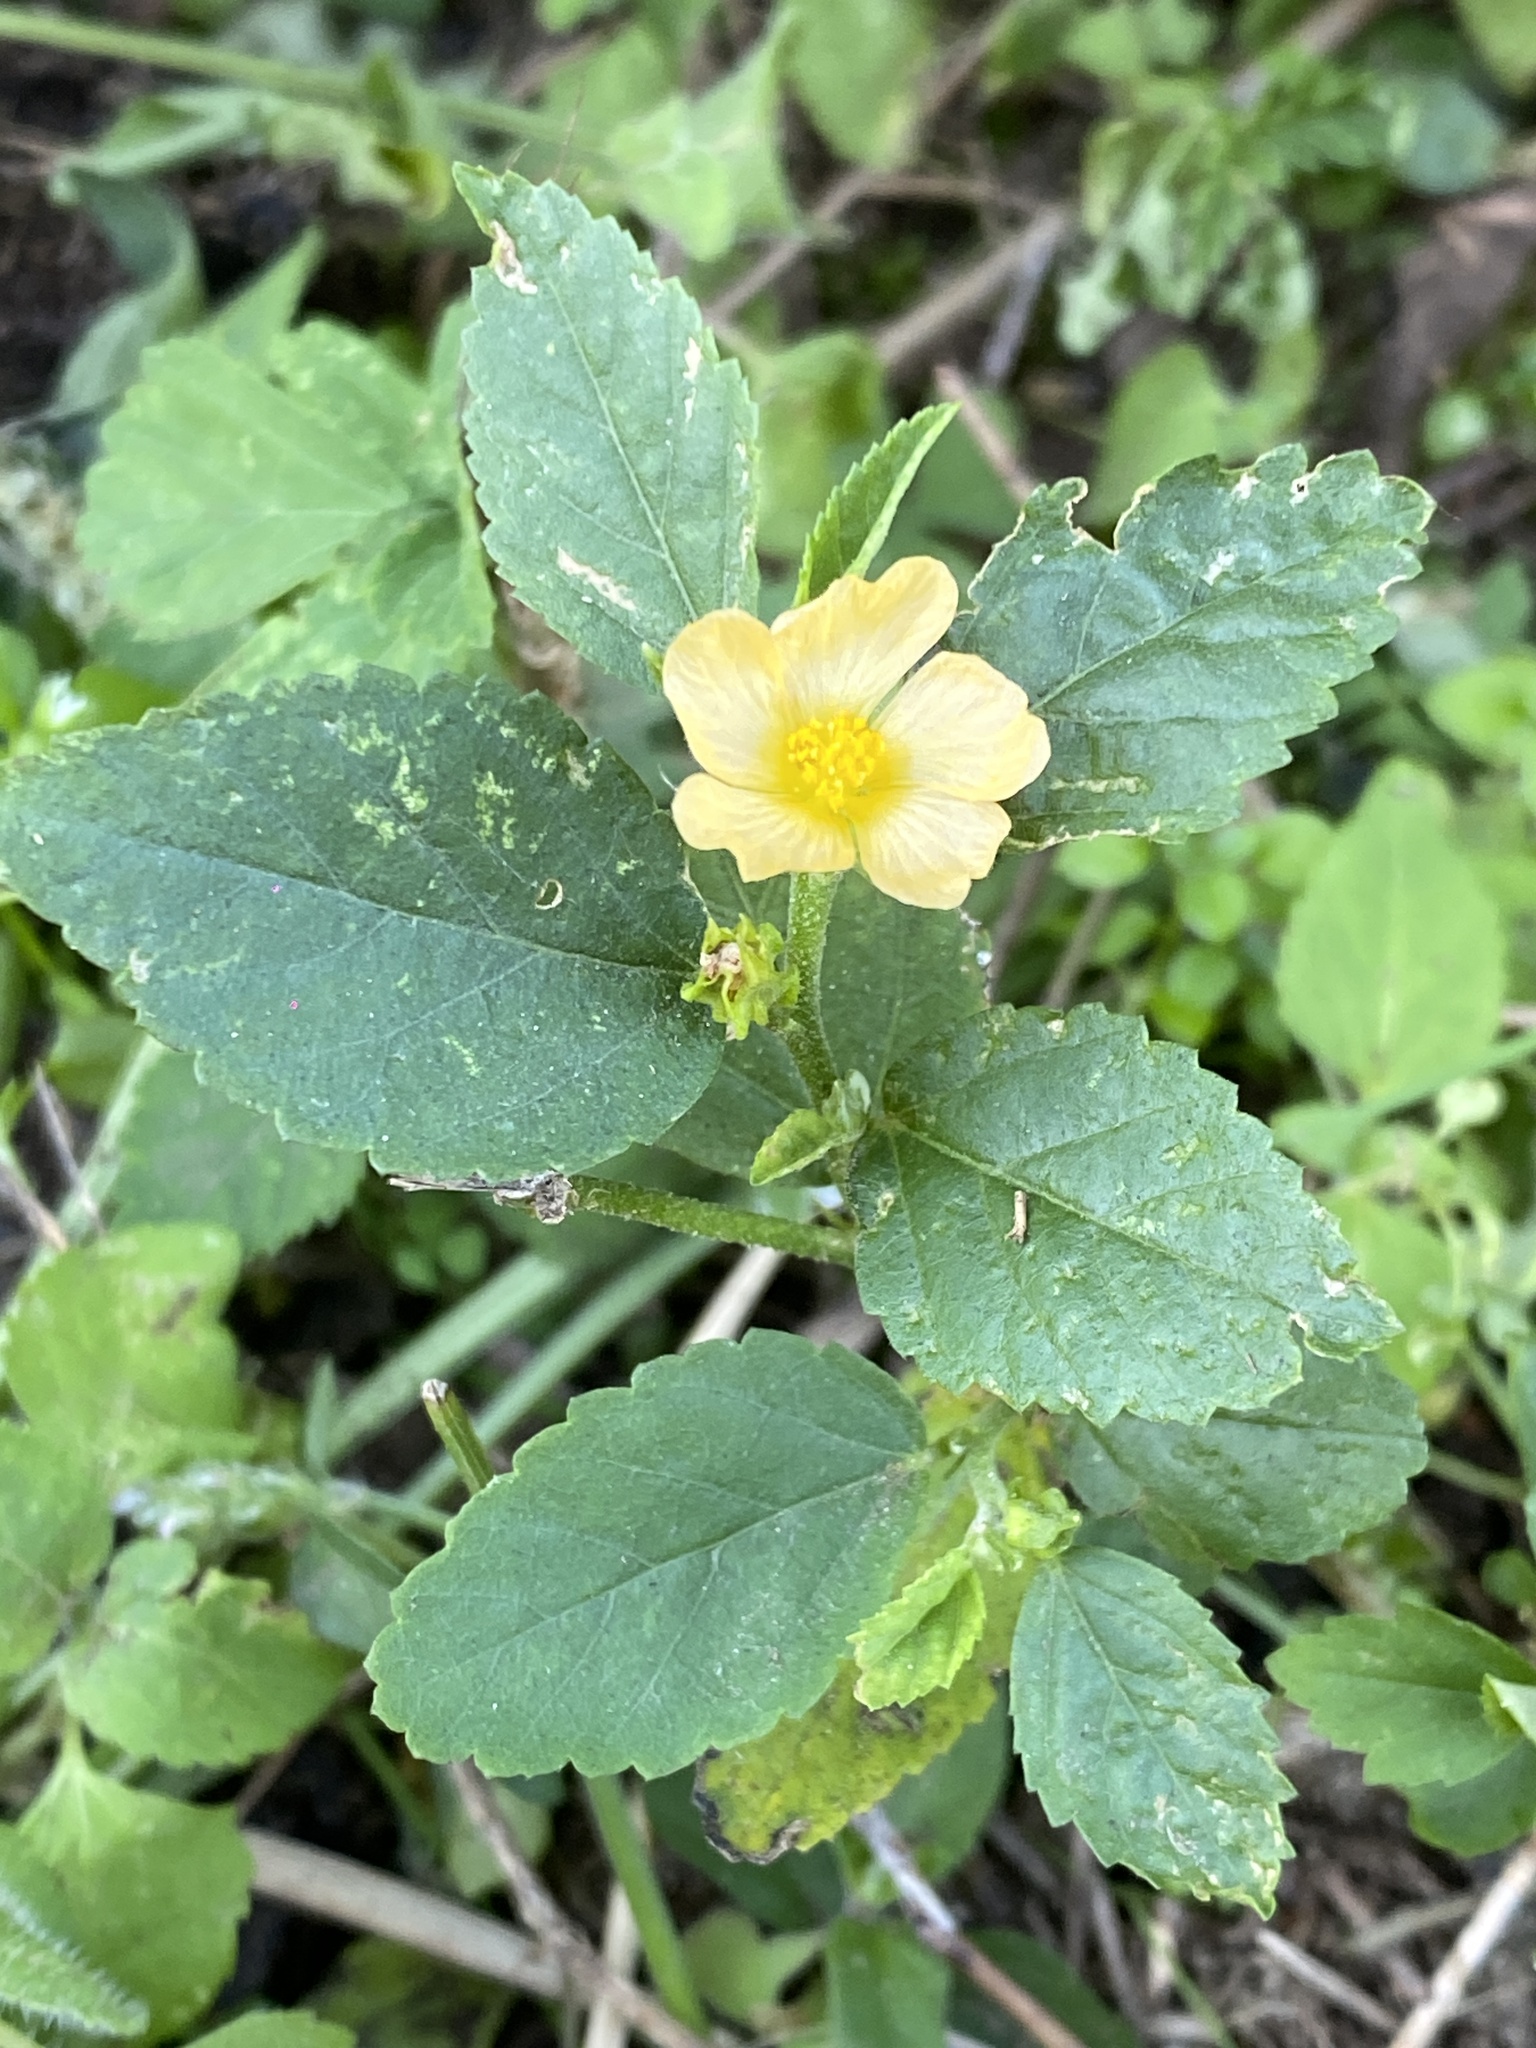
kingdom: Plantae
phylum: Tracheophyta
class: Magnoliopsida
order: Malvales
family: Malvaceae
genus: Sida
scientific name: Sida rhombifolia
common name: Queensland-hemp
